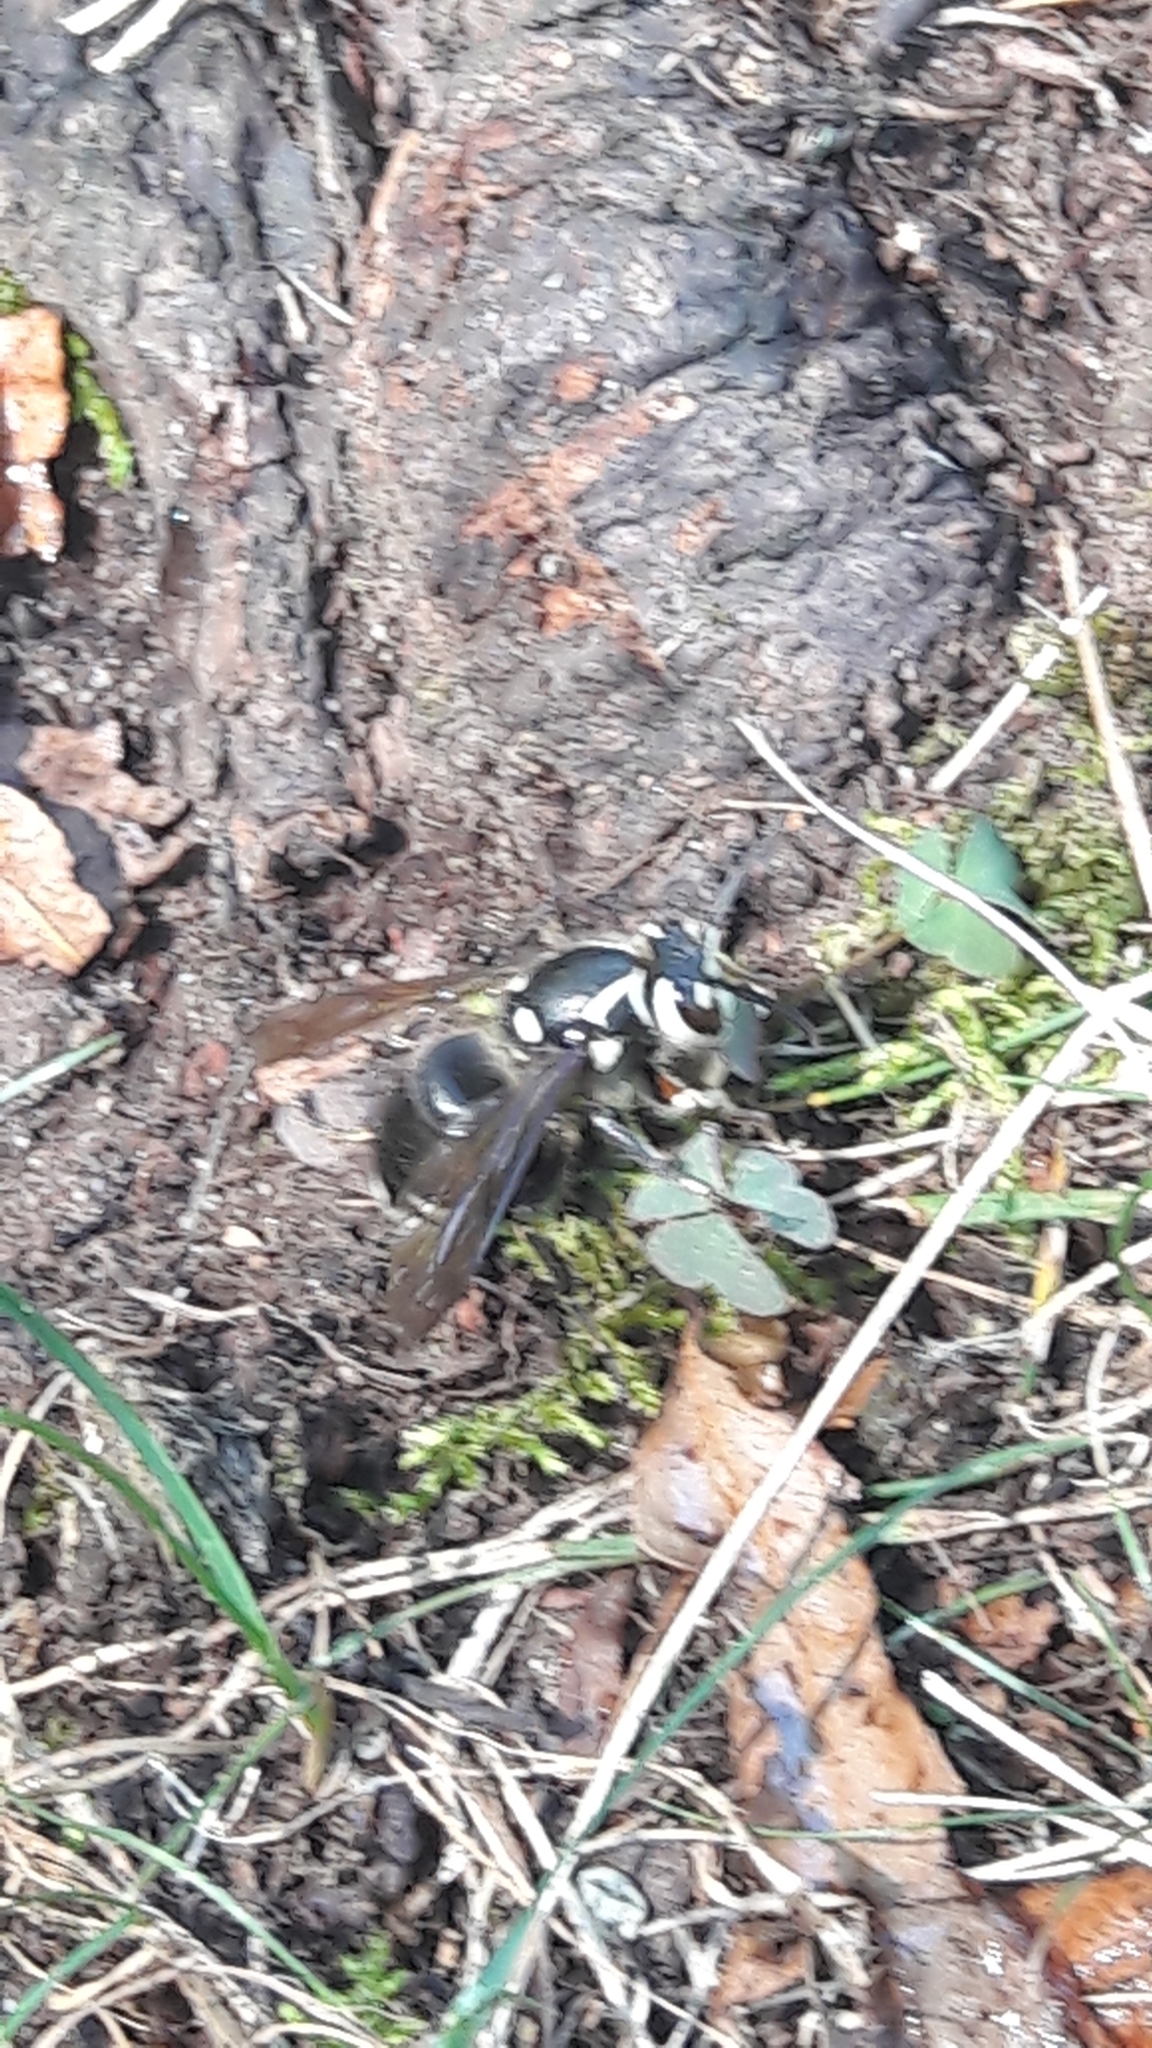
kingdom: Animalia
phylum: Arthropoda
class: Insecta
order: Hymenoptera
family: Vespidae
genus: Dolichovespula
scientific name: Dolichovespula maculata
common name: Bald-faced hornet
